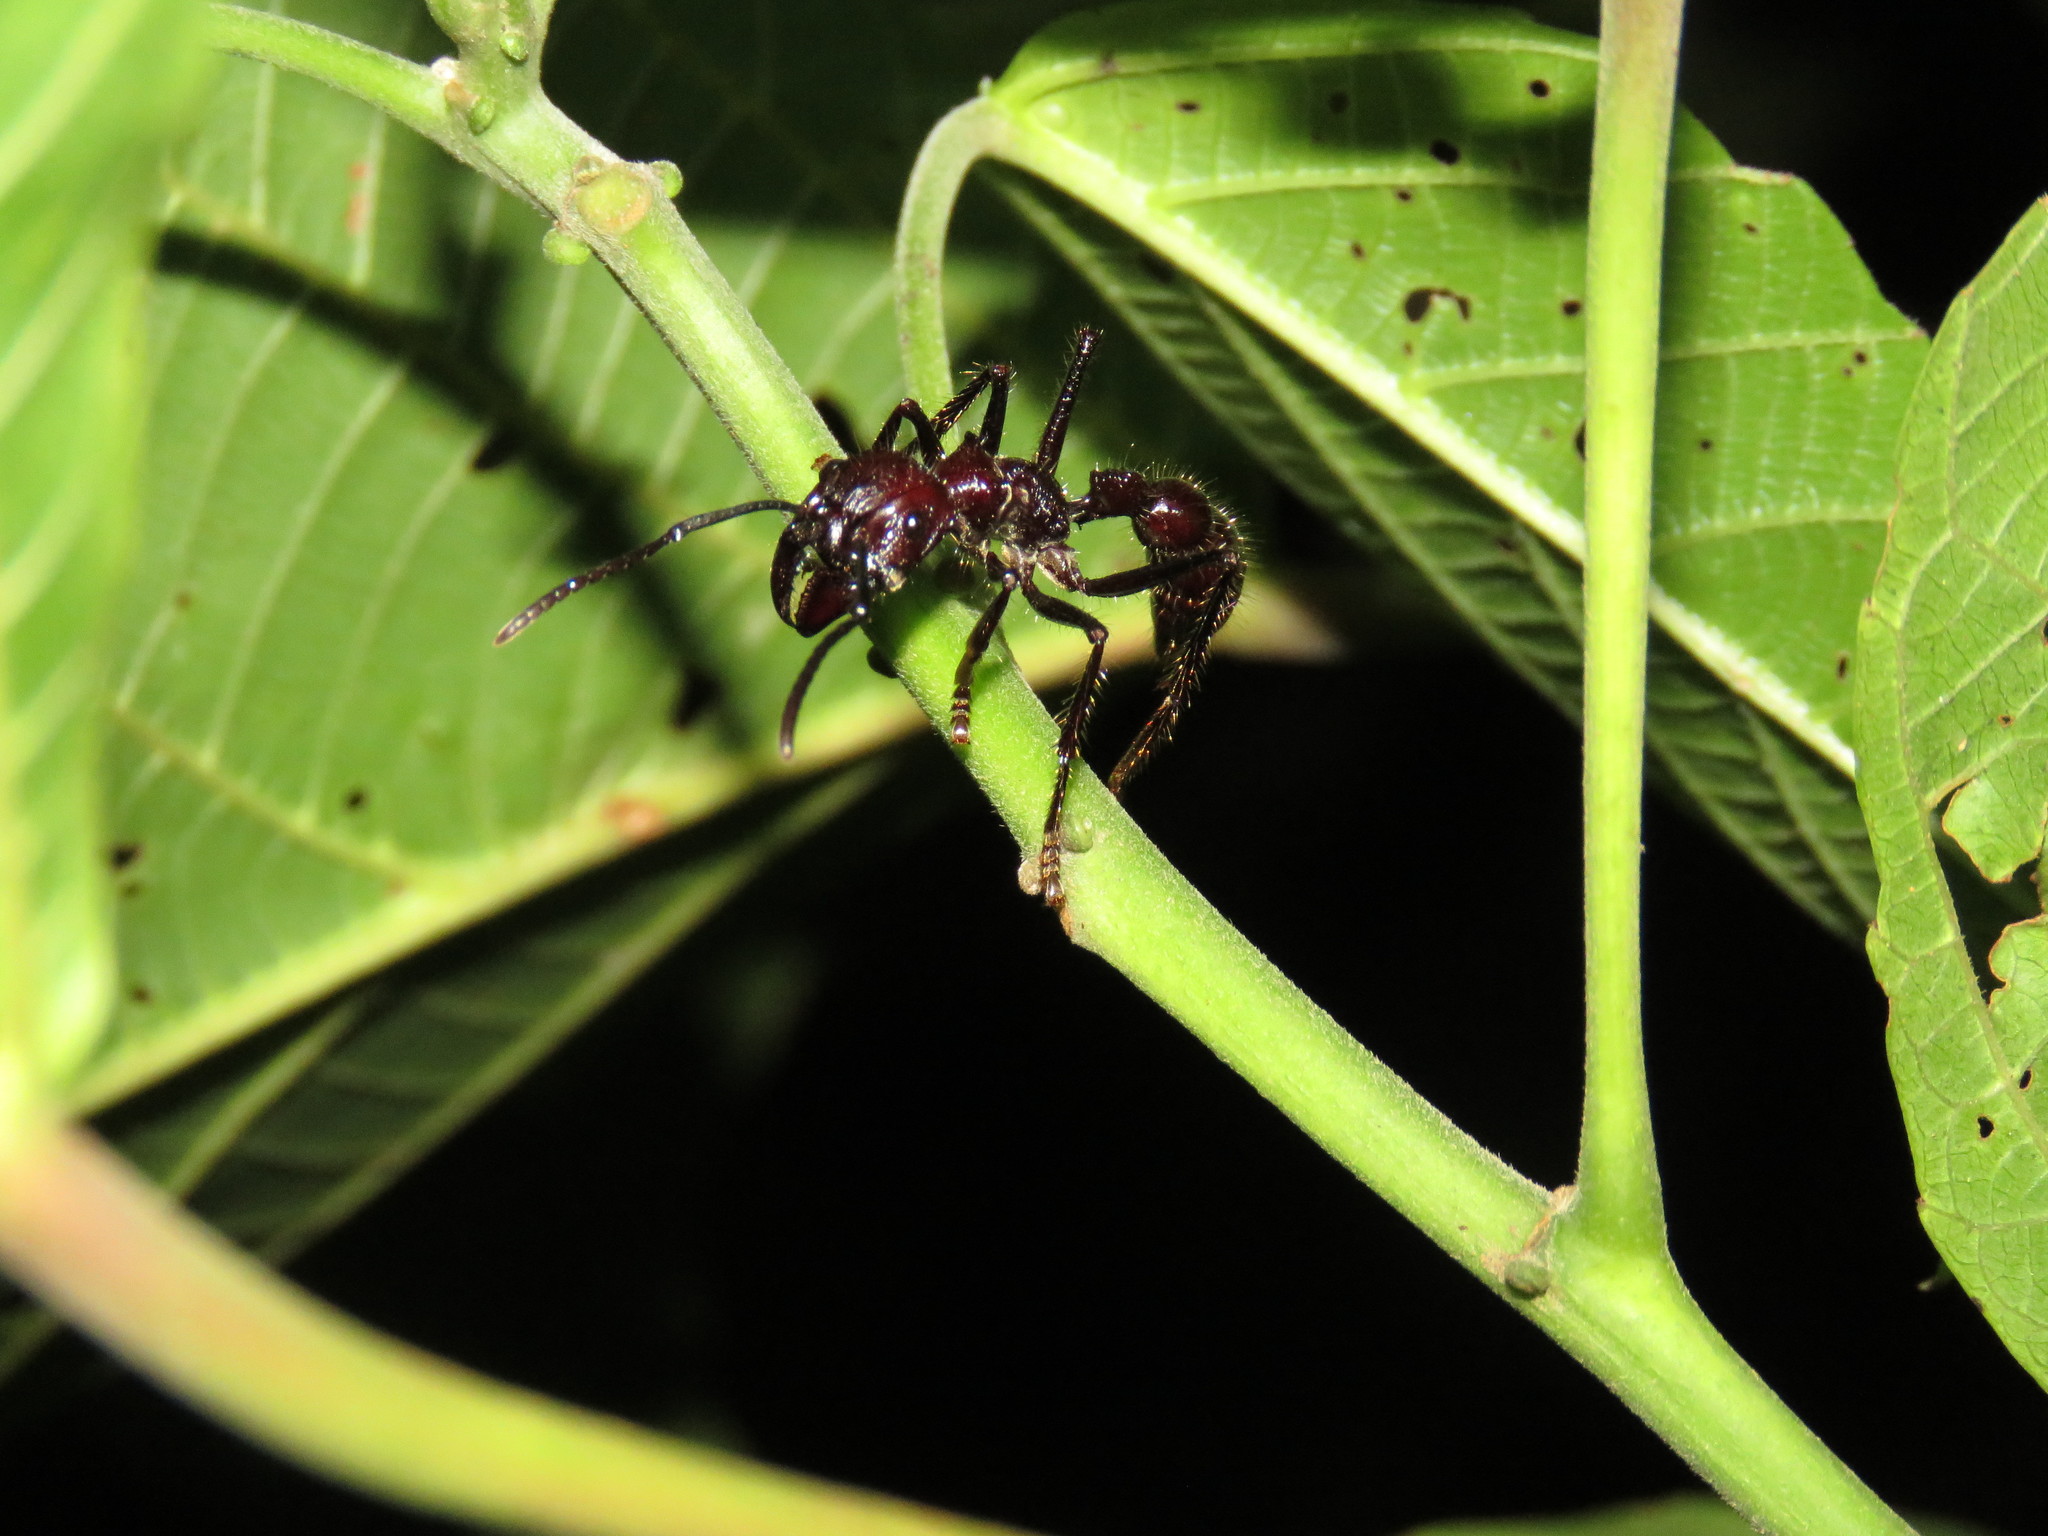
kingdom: Animalia
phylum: Arthropoda
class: Insecta
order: Hymenoptera
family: Formicidae
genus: Paraponera
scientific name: Paraponera clavata
